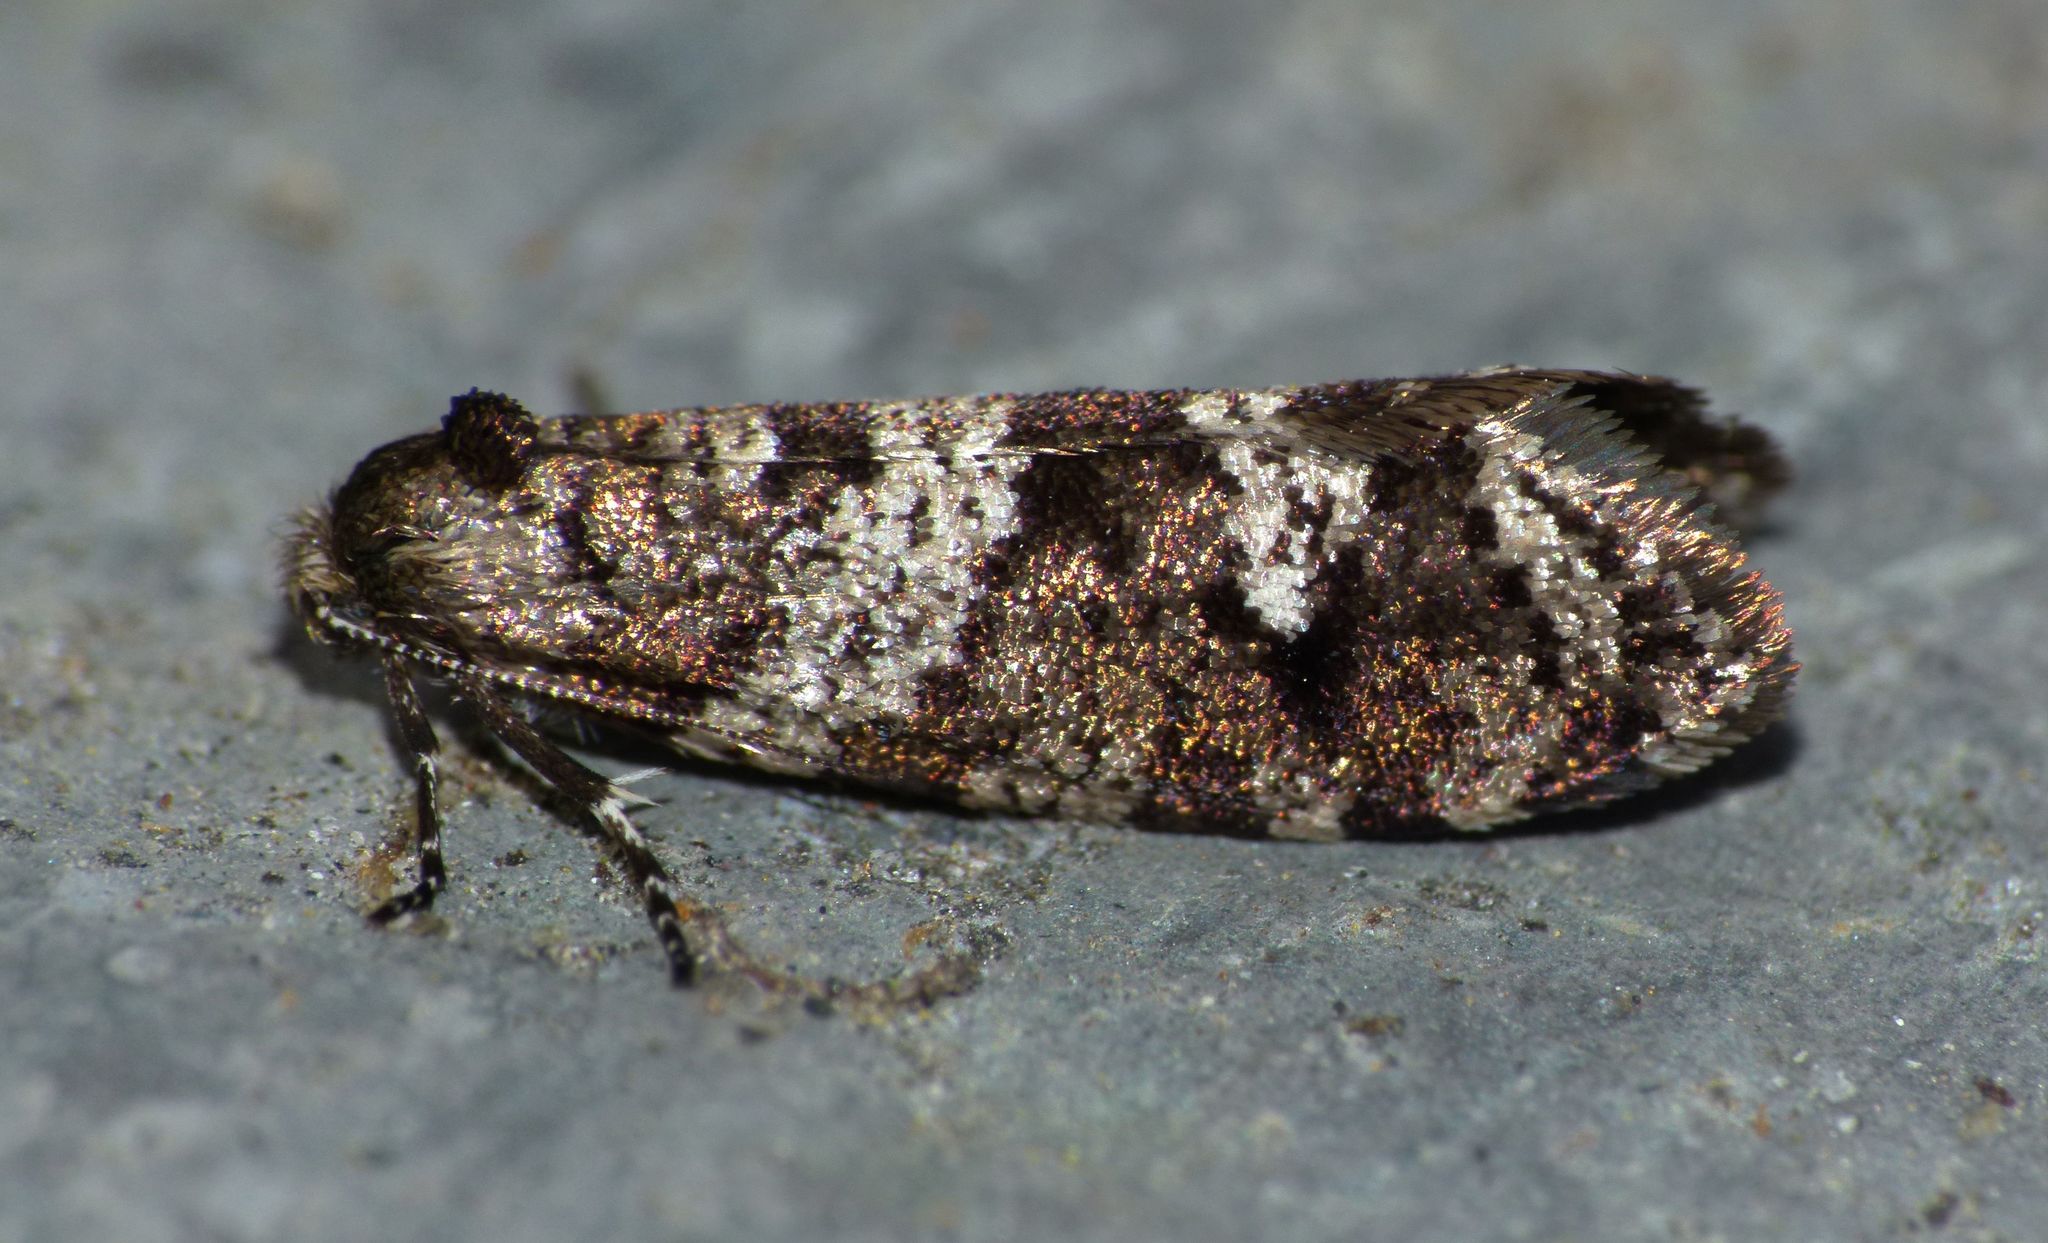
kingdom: Animalia
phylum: Arthropoda
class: Insecta
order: Lepidoptera
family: Psychidae
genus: Lepidoscia
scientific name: Lepidoscia heliochares
